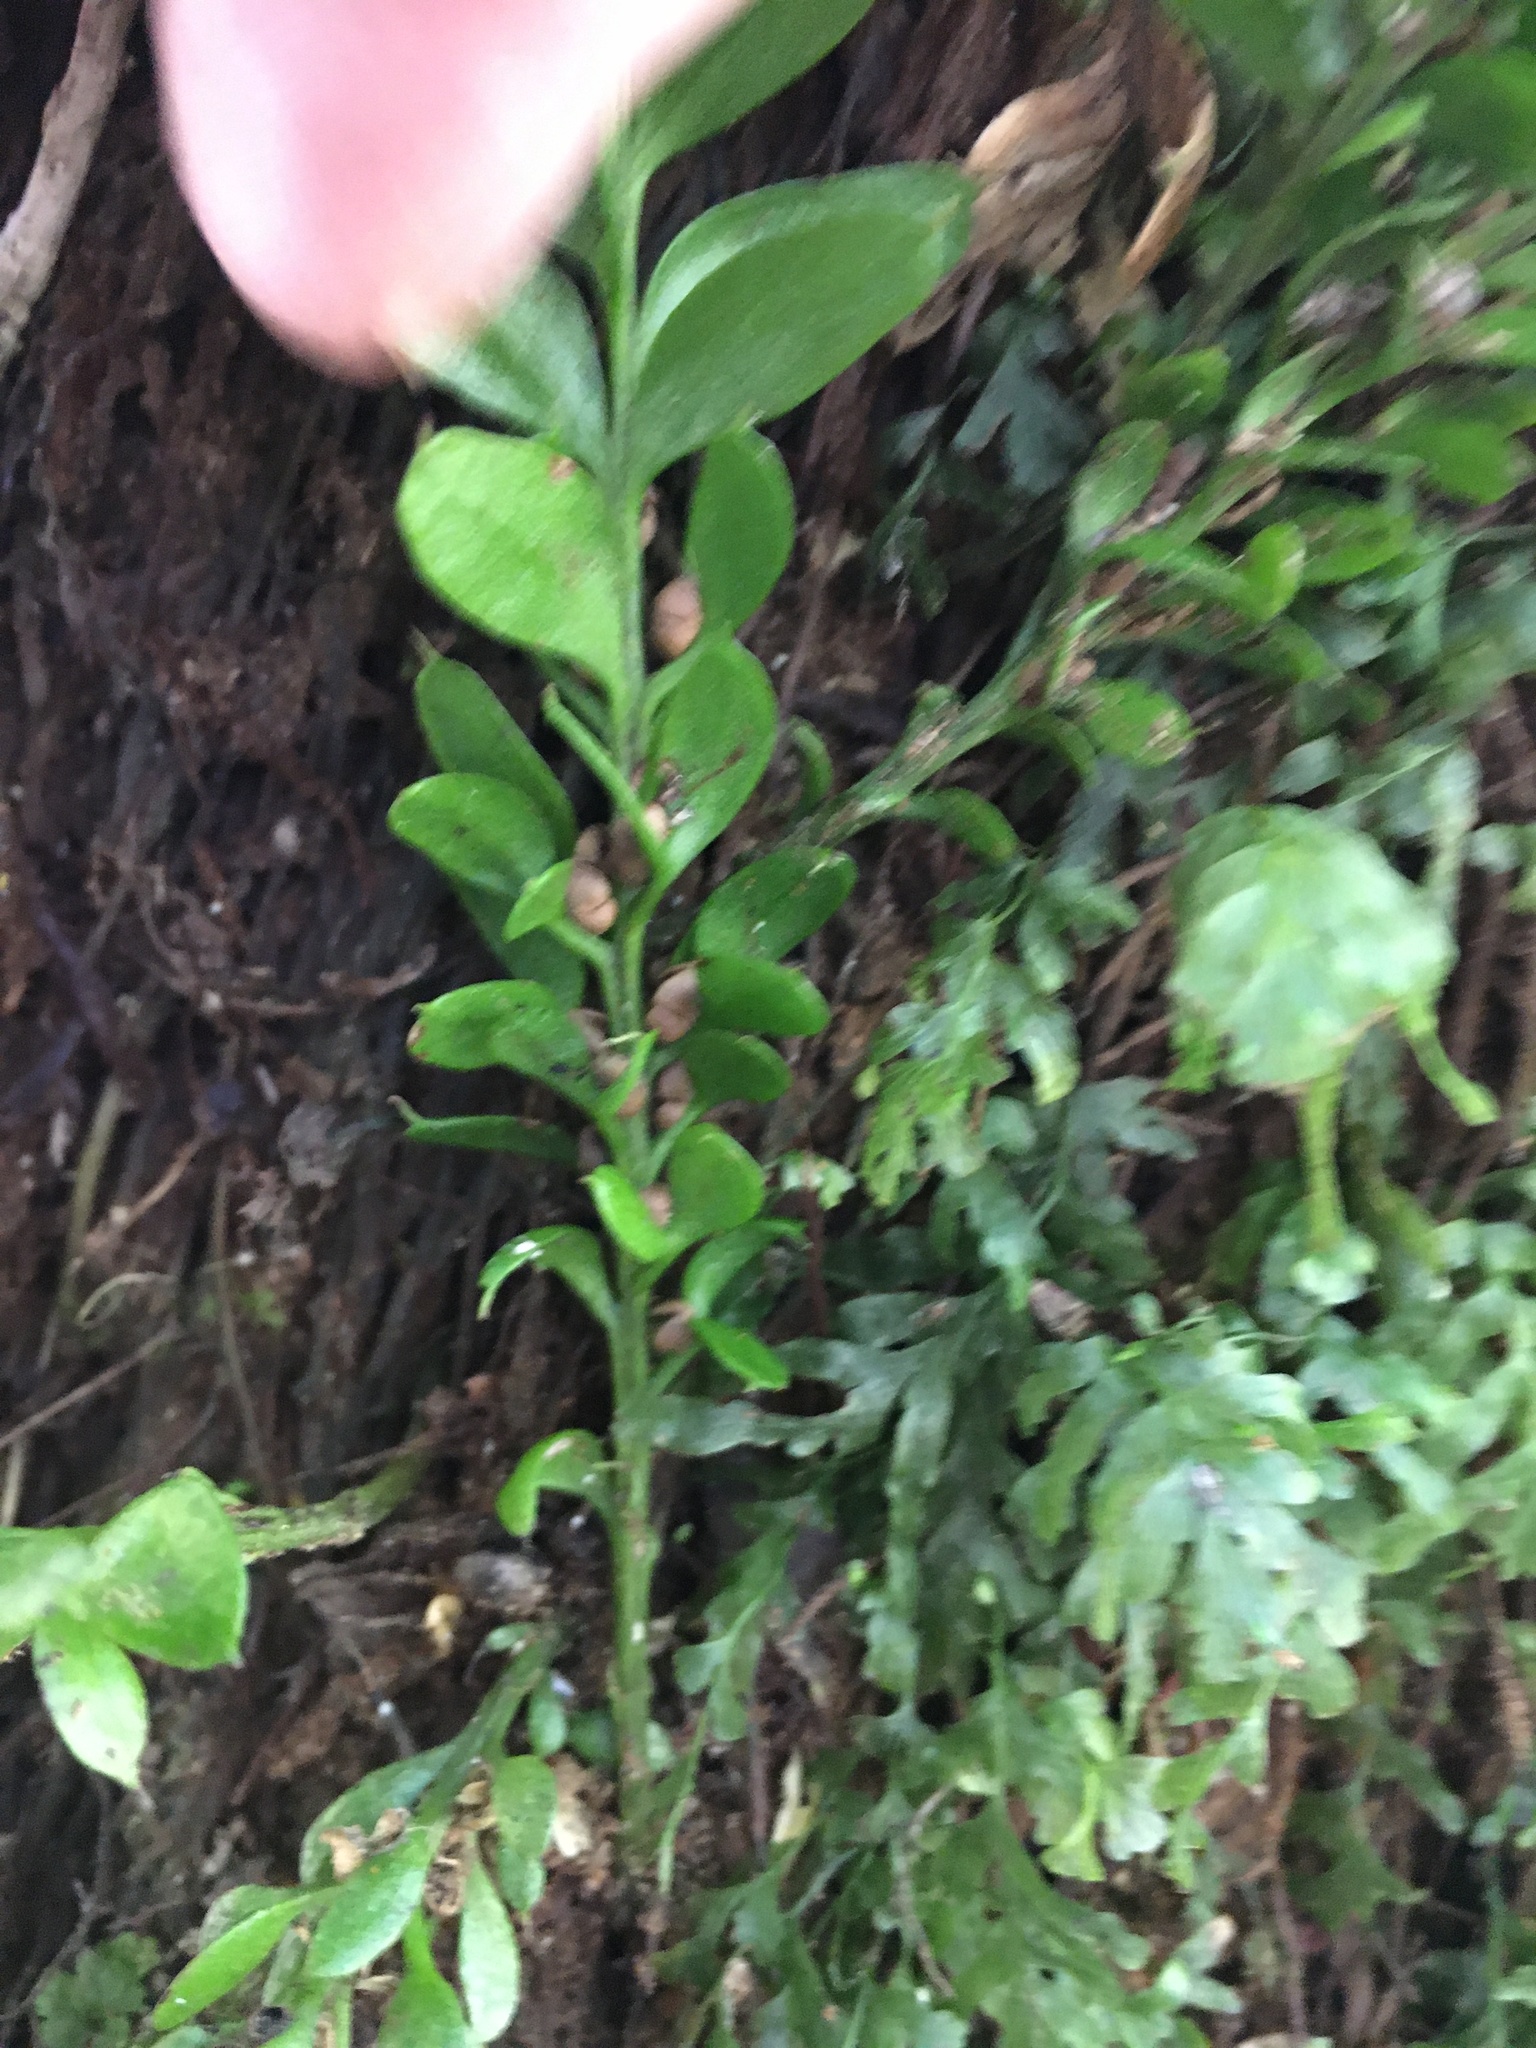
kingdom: Plantae
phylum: Tracheophyta
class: Polypodiopsida
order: Psilotales
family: Psilotaceae
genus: Tmesipteris
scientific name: Tmesipteris lanceolata
